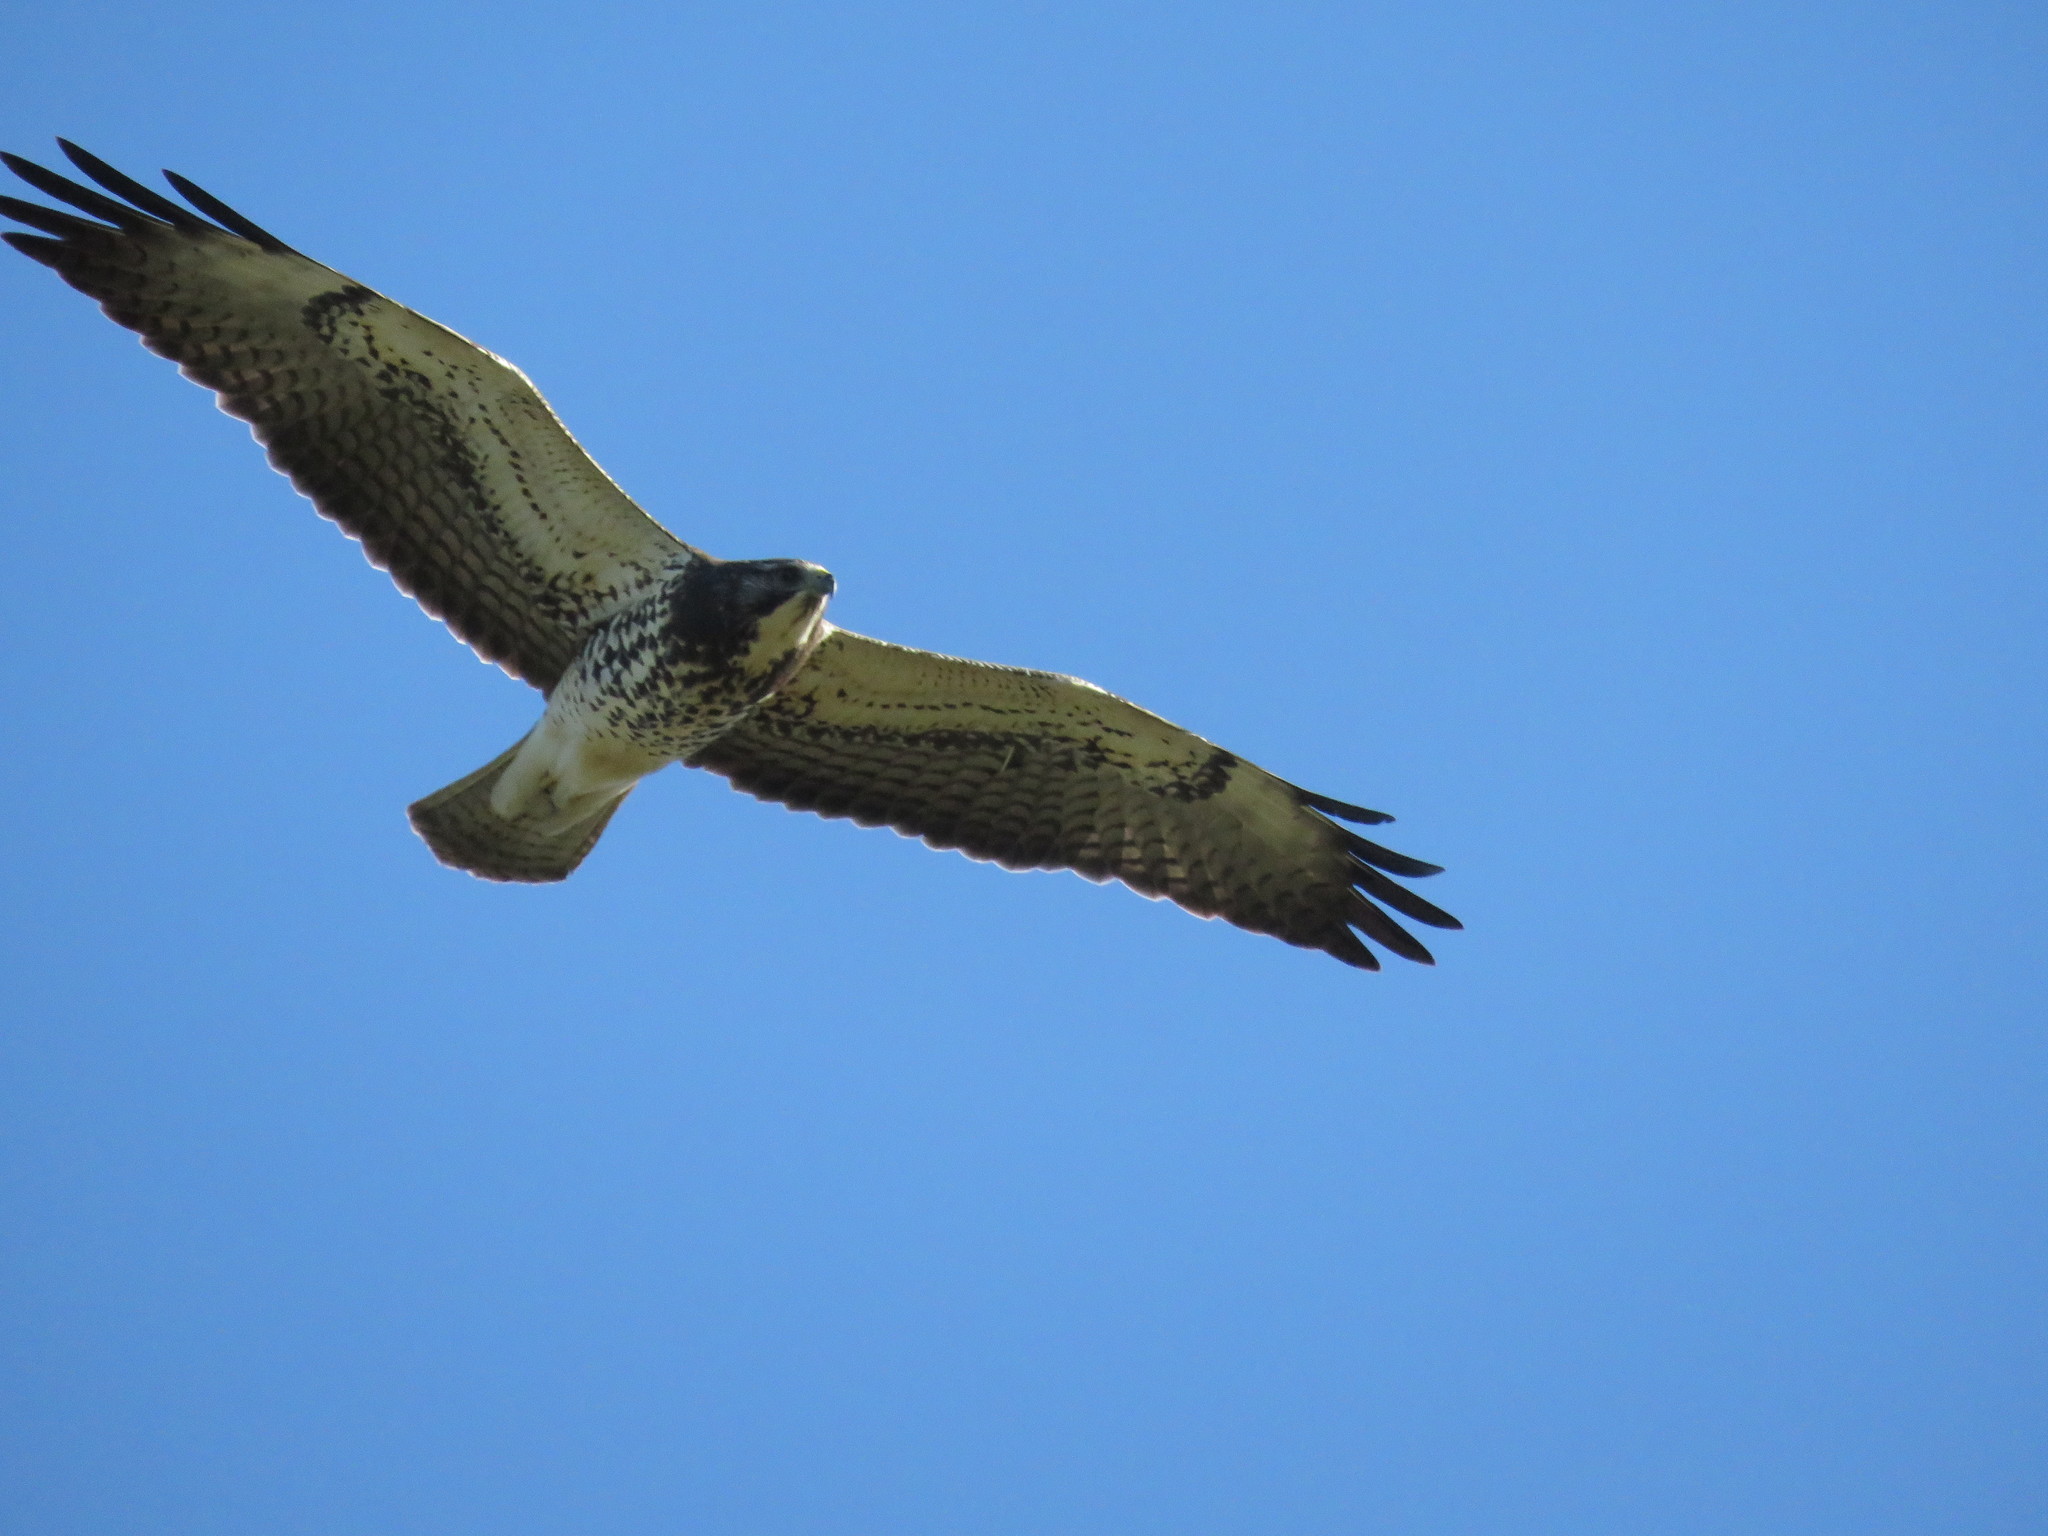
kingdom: Animalia
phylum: Chordata
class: Aves
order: Accipitriformes
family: Accipitridae
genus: Buteo
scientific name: Buteo swainsoni
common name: Swainson's hawk
